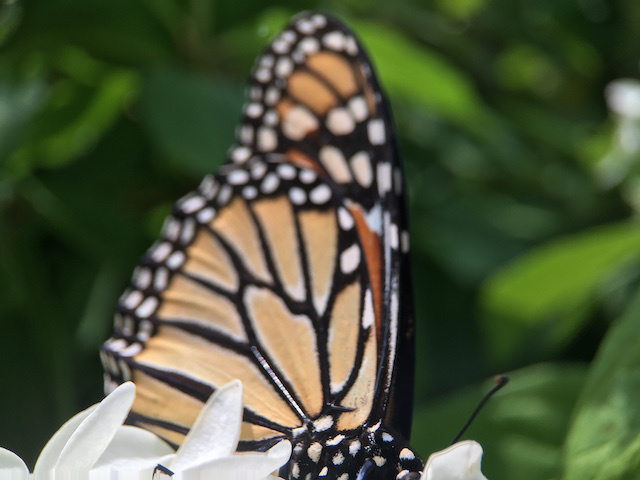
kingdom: Animalia
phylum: Arthropoda
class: Insecta
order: Lepidoptera
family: Nymphalidae
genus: Danaus
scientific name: Danaus plexippus
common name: Monarch
